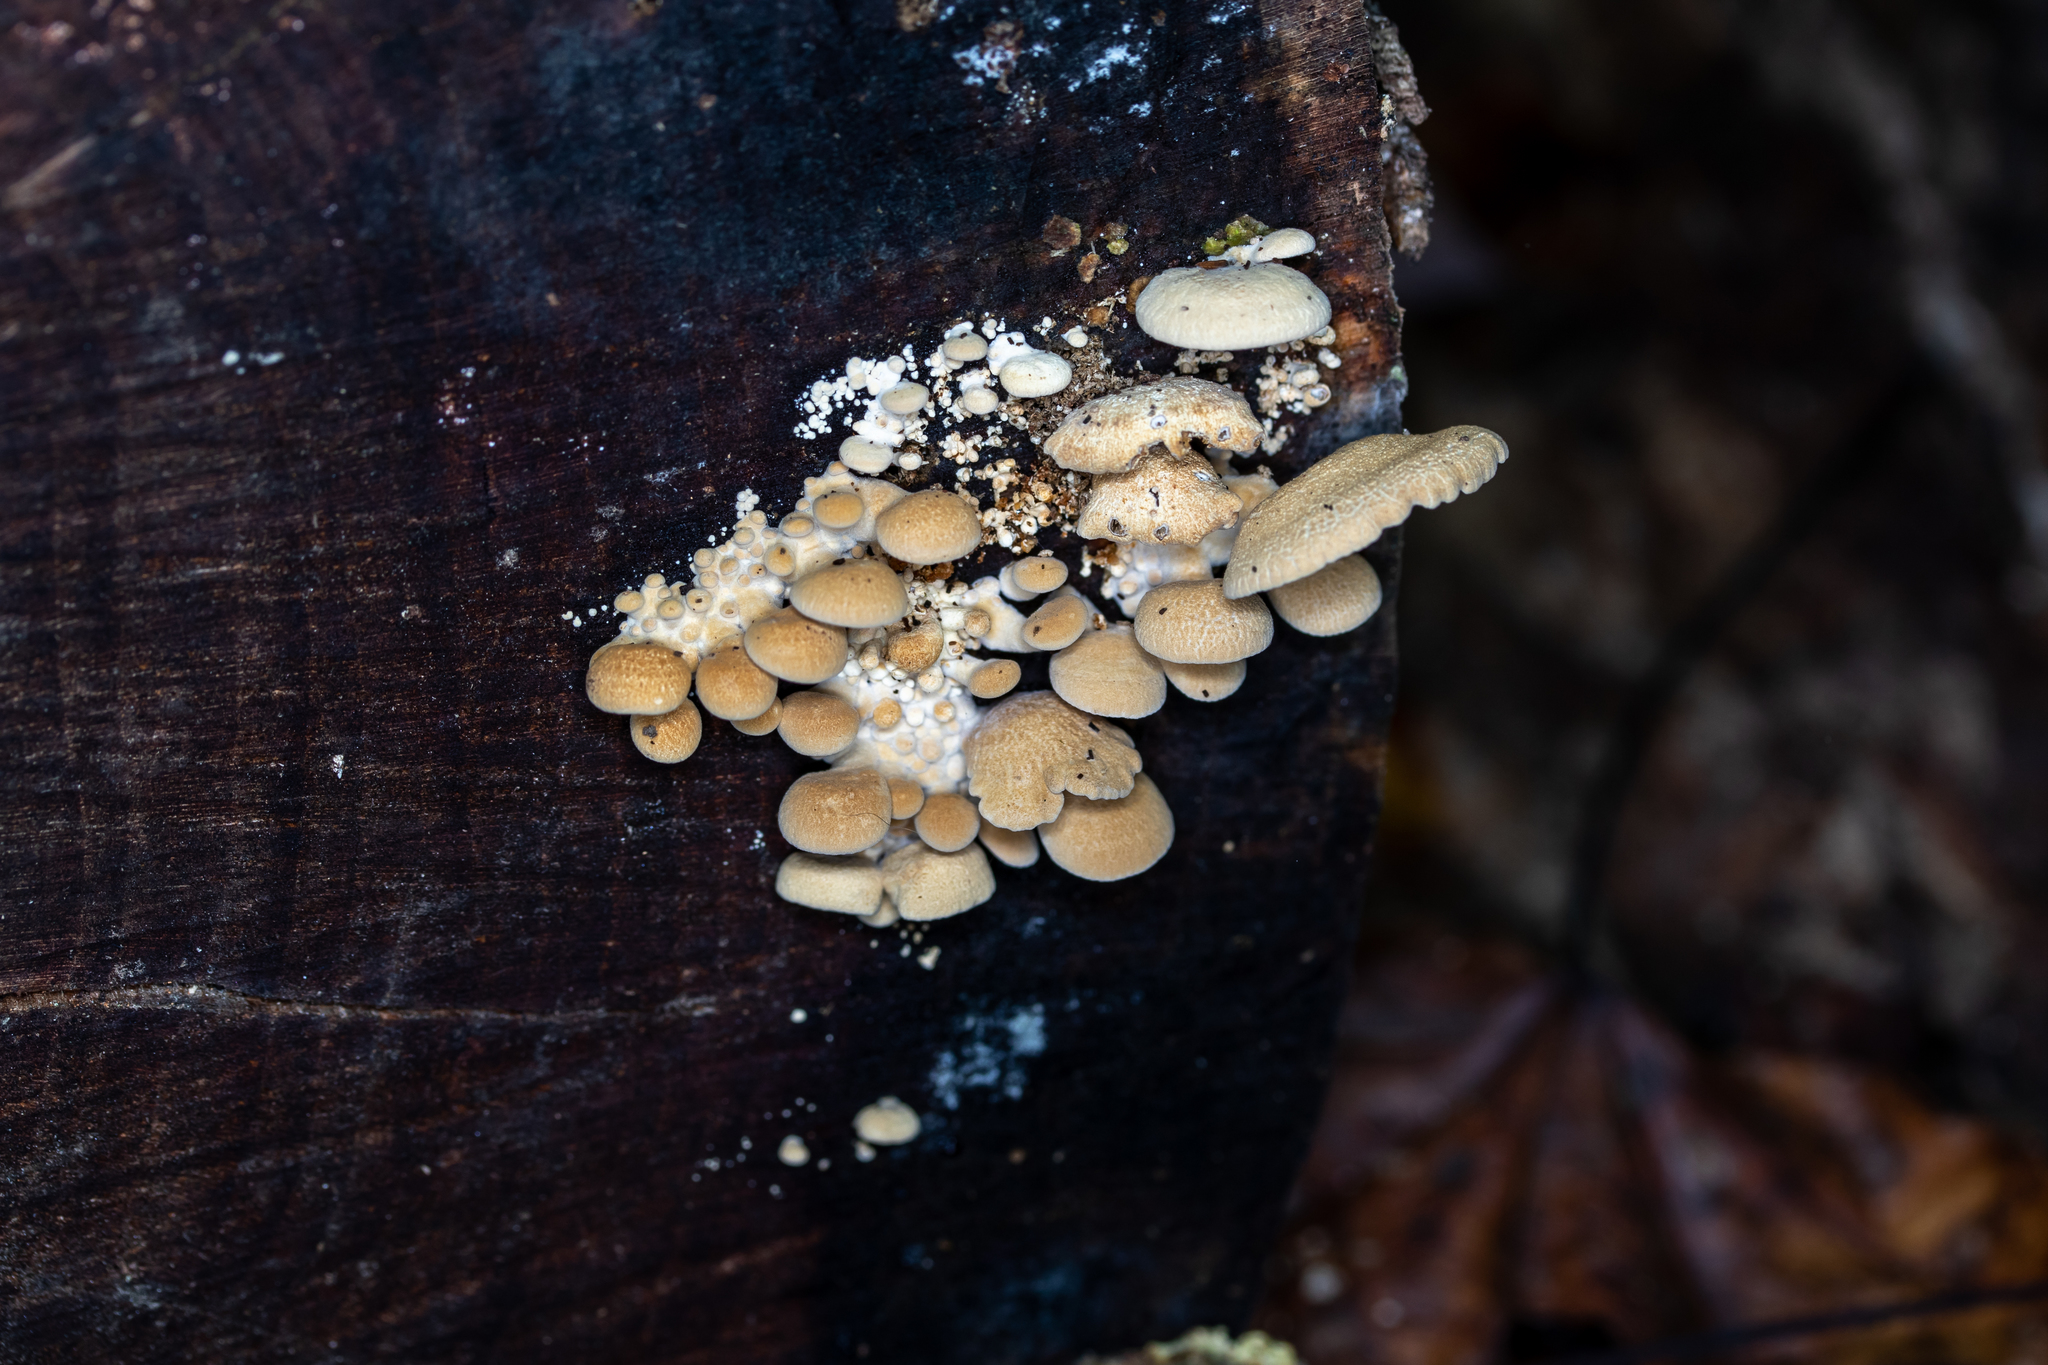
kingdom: Fungi
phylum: Basidiomycota
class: Agaricomycetes
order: Agaricales
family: Mycenaceae
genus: Panellus
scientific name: Panellus stipticus
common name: Bitter oysterling
